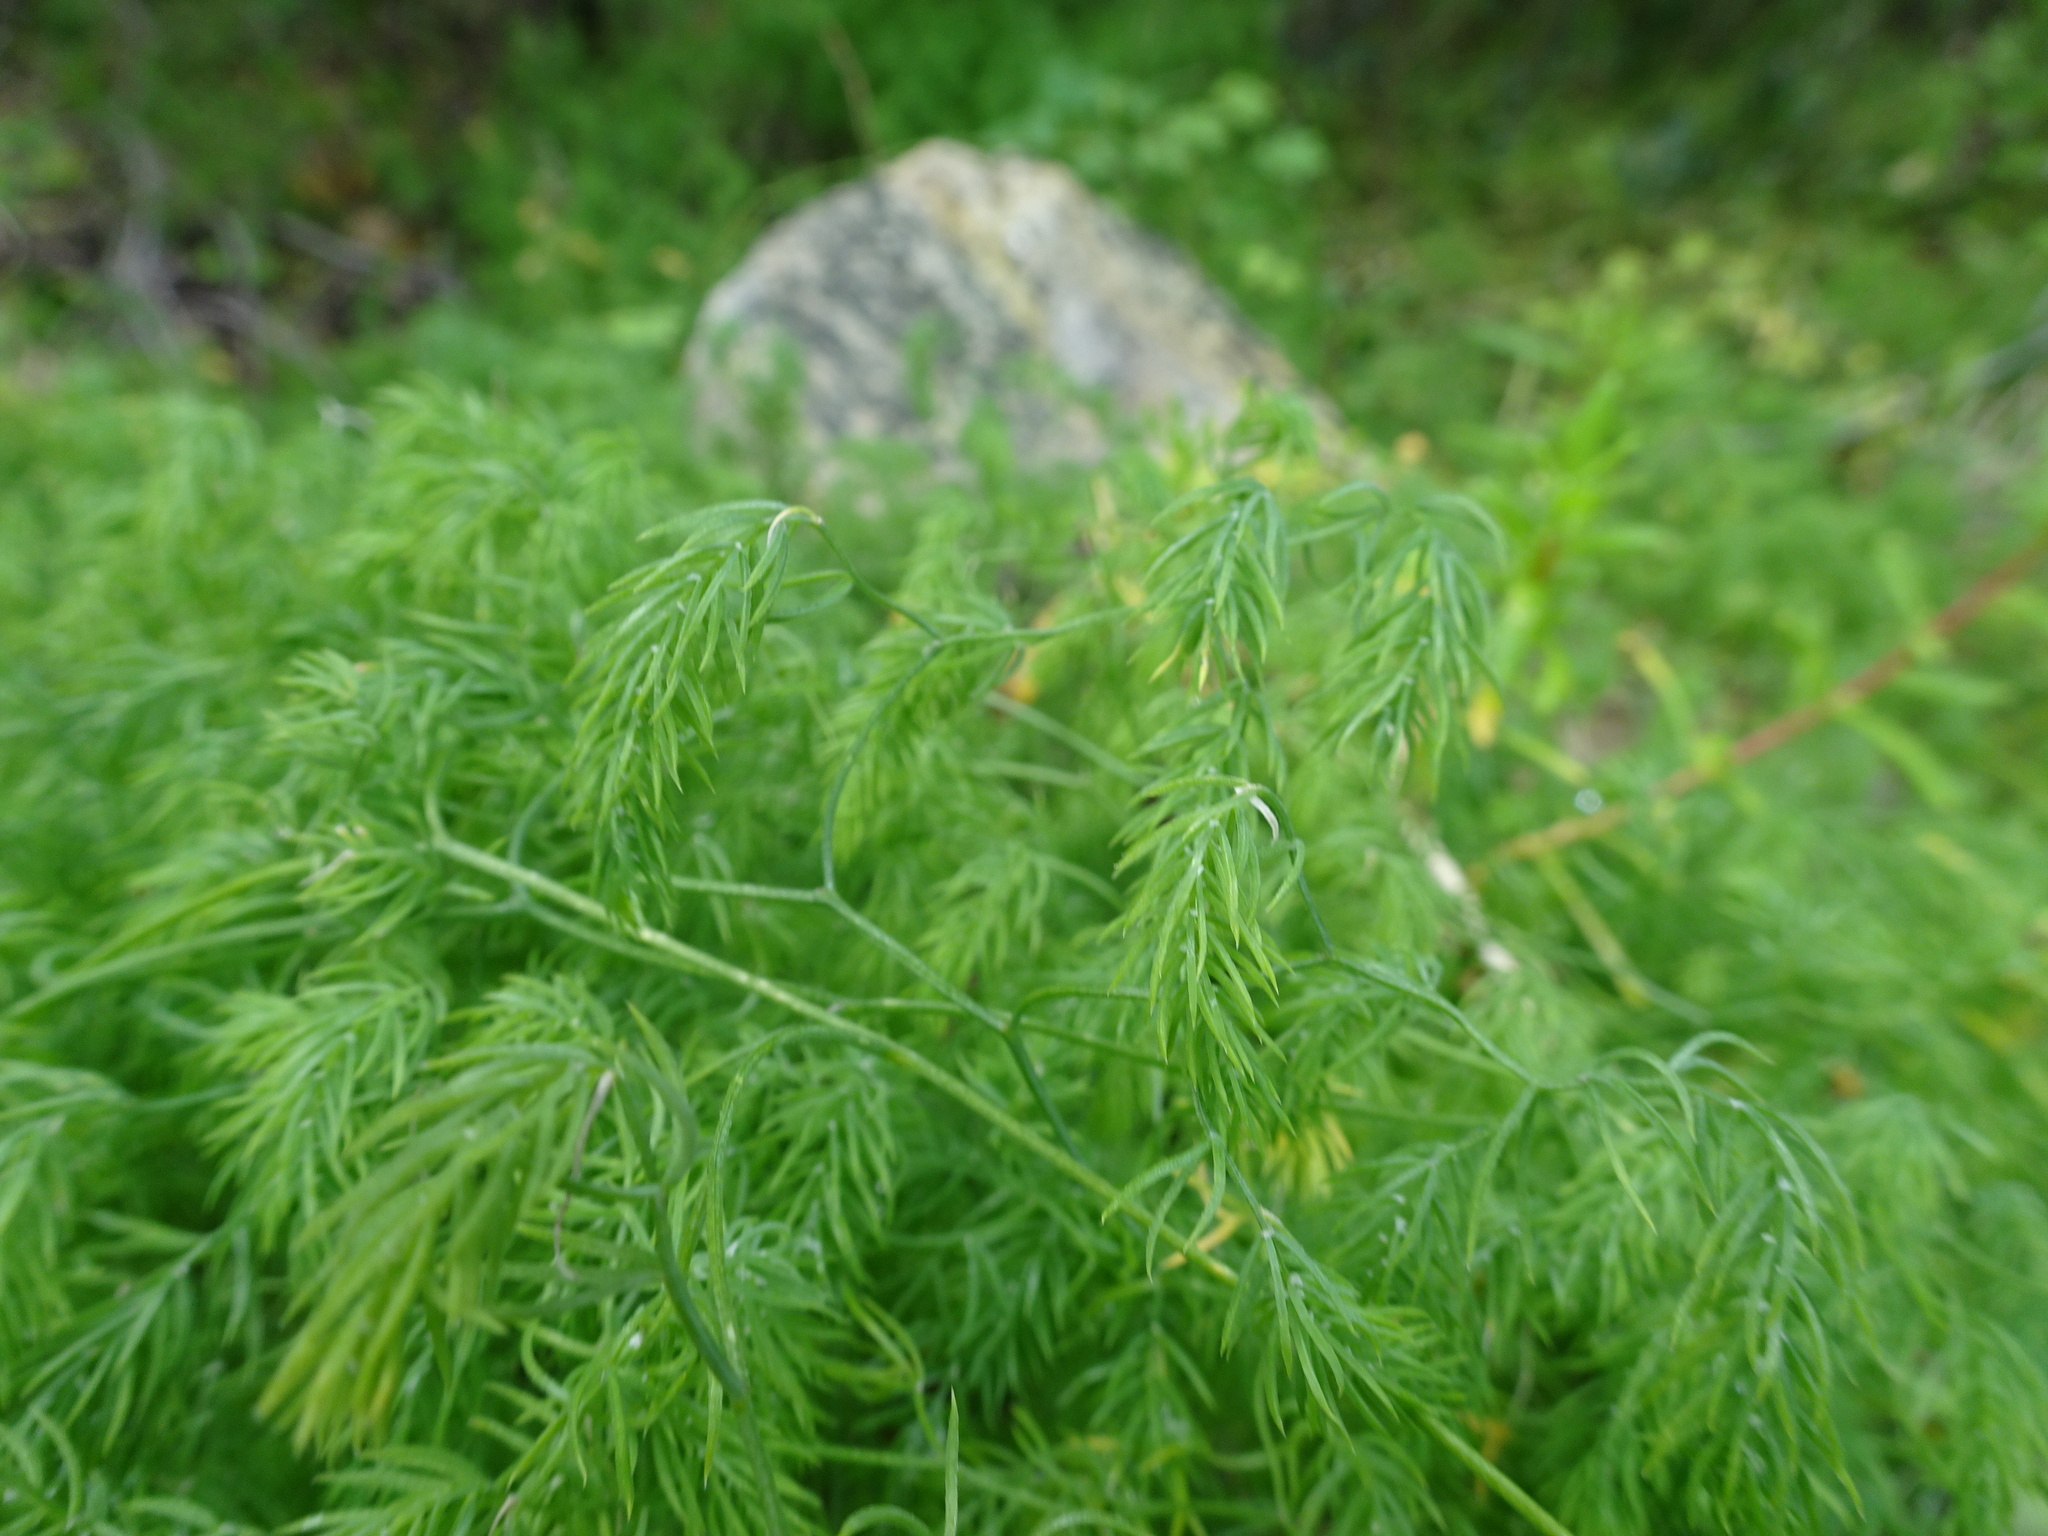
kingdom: Plantae
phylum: Tracheophyta
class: Liliopsida
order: Asparagales
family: Asparagaceae
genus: Asparagus
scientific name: Asparagus declinatus
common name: Bridal-creeper
